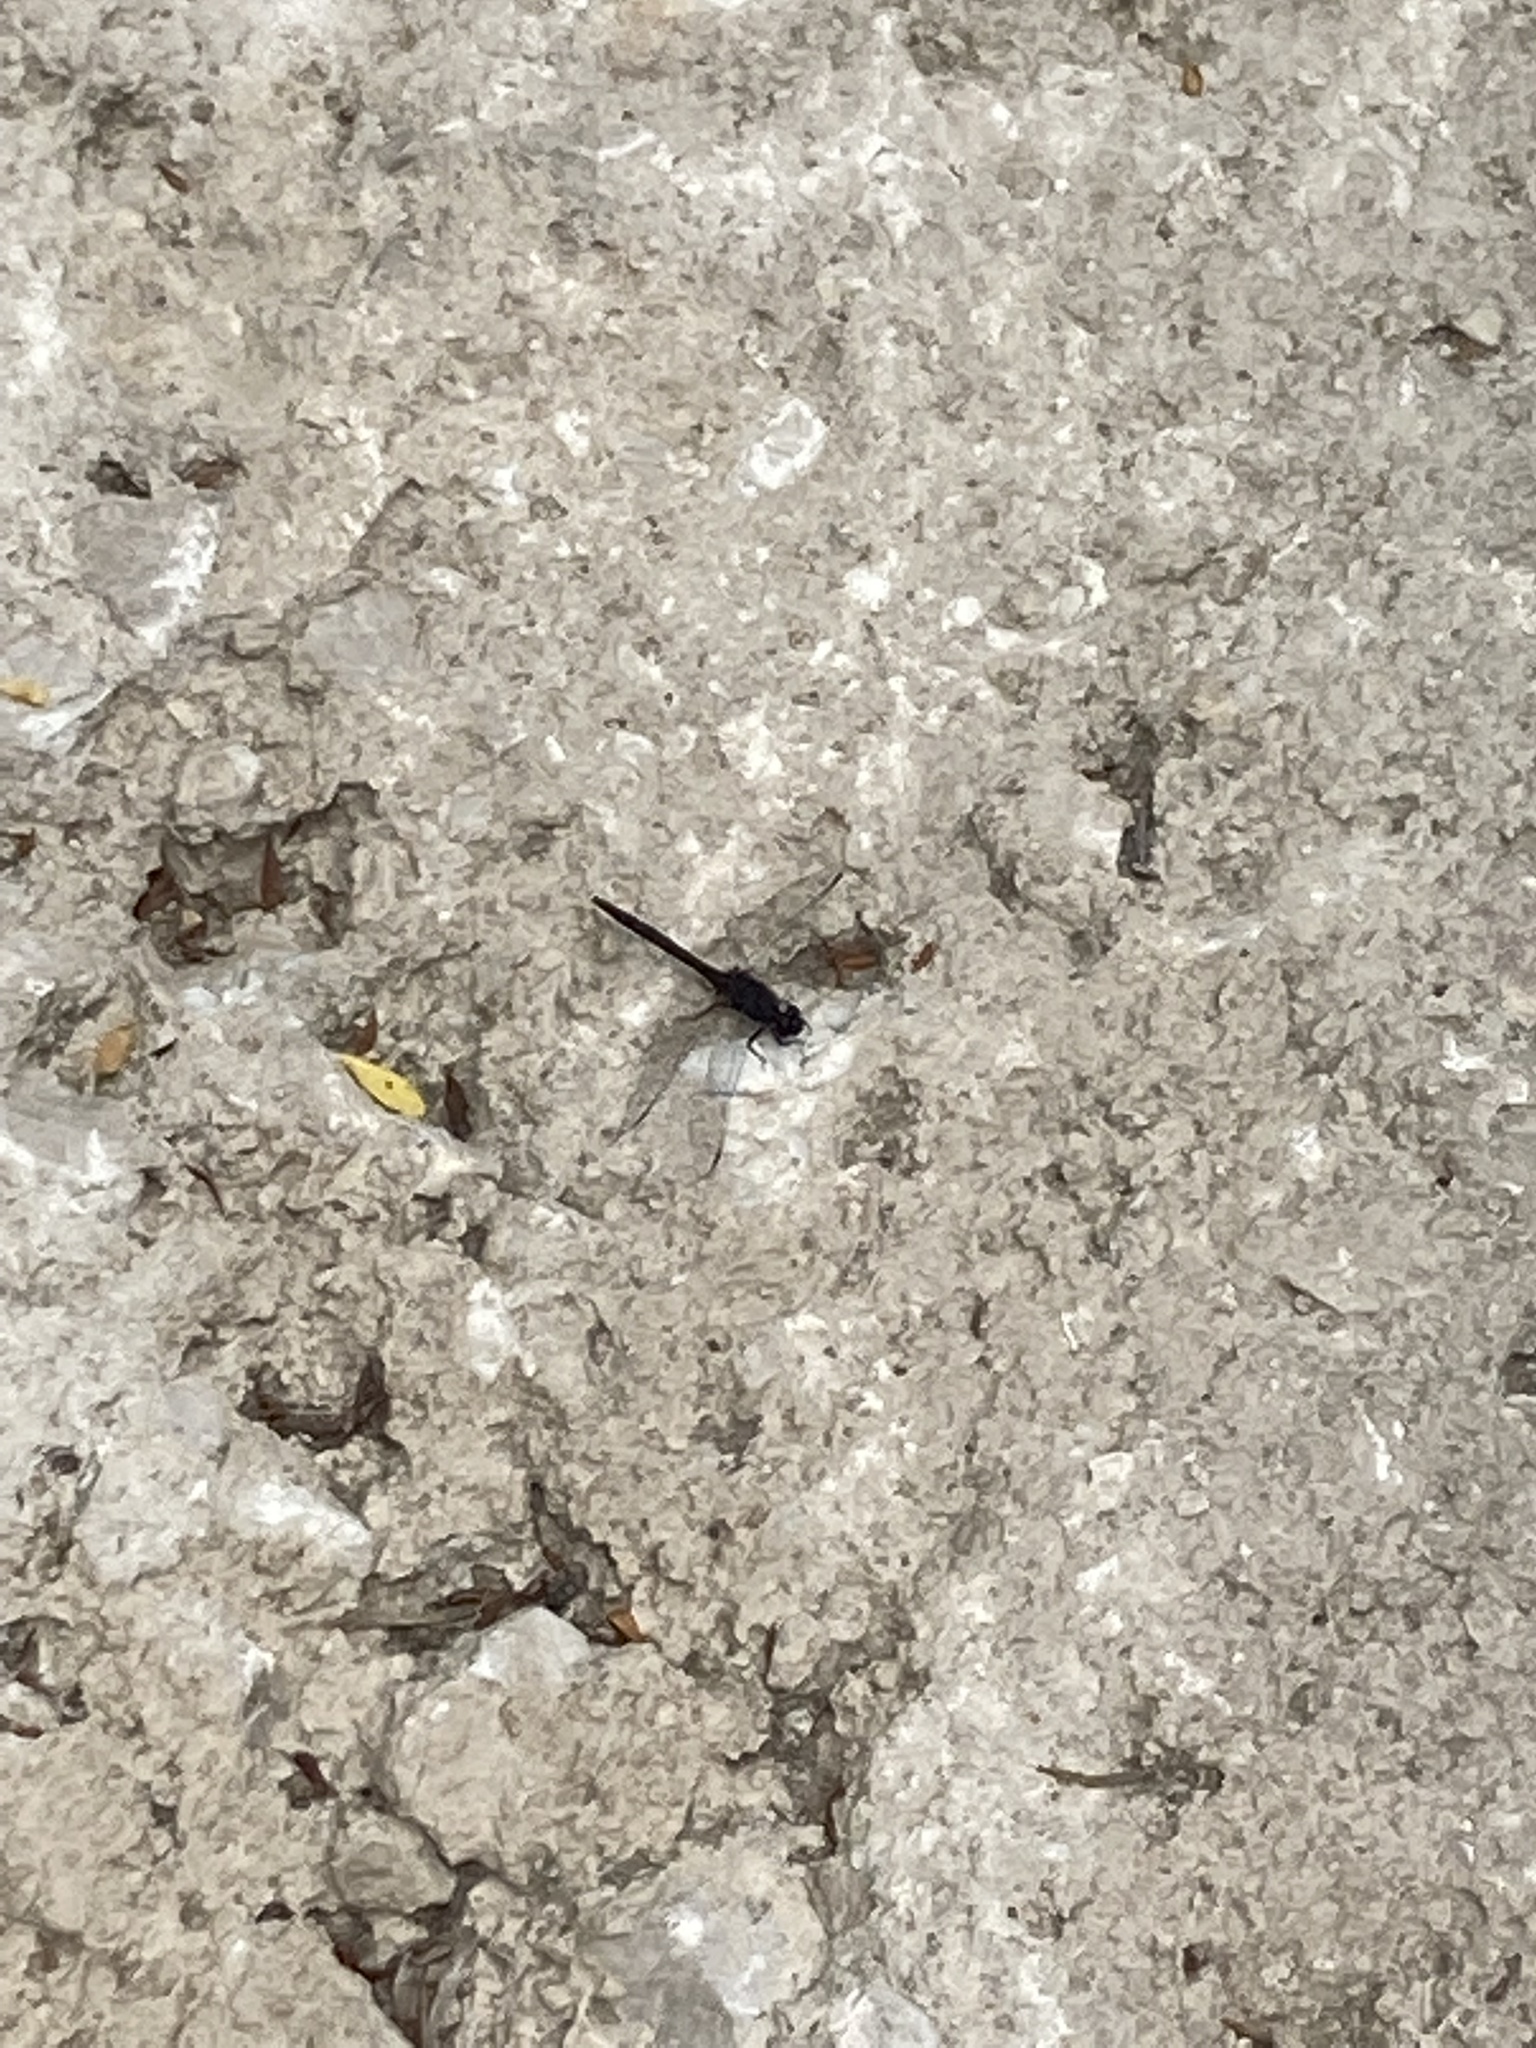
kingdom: Animalia
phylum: Arthropoda
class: Insecta
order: Odonata
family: Libellulidae
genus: Trithemis
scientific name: Trithemis festiva
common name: Indigo dropwing
